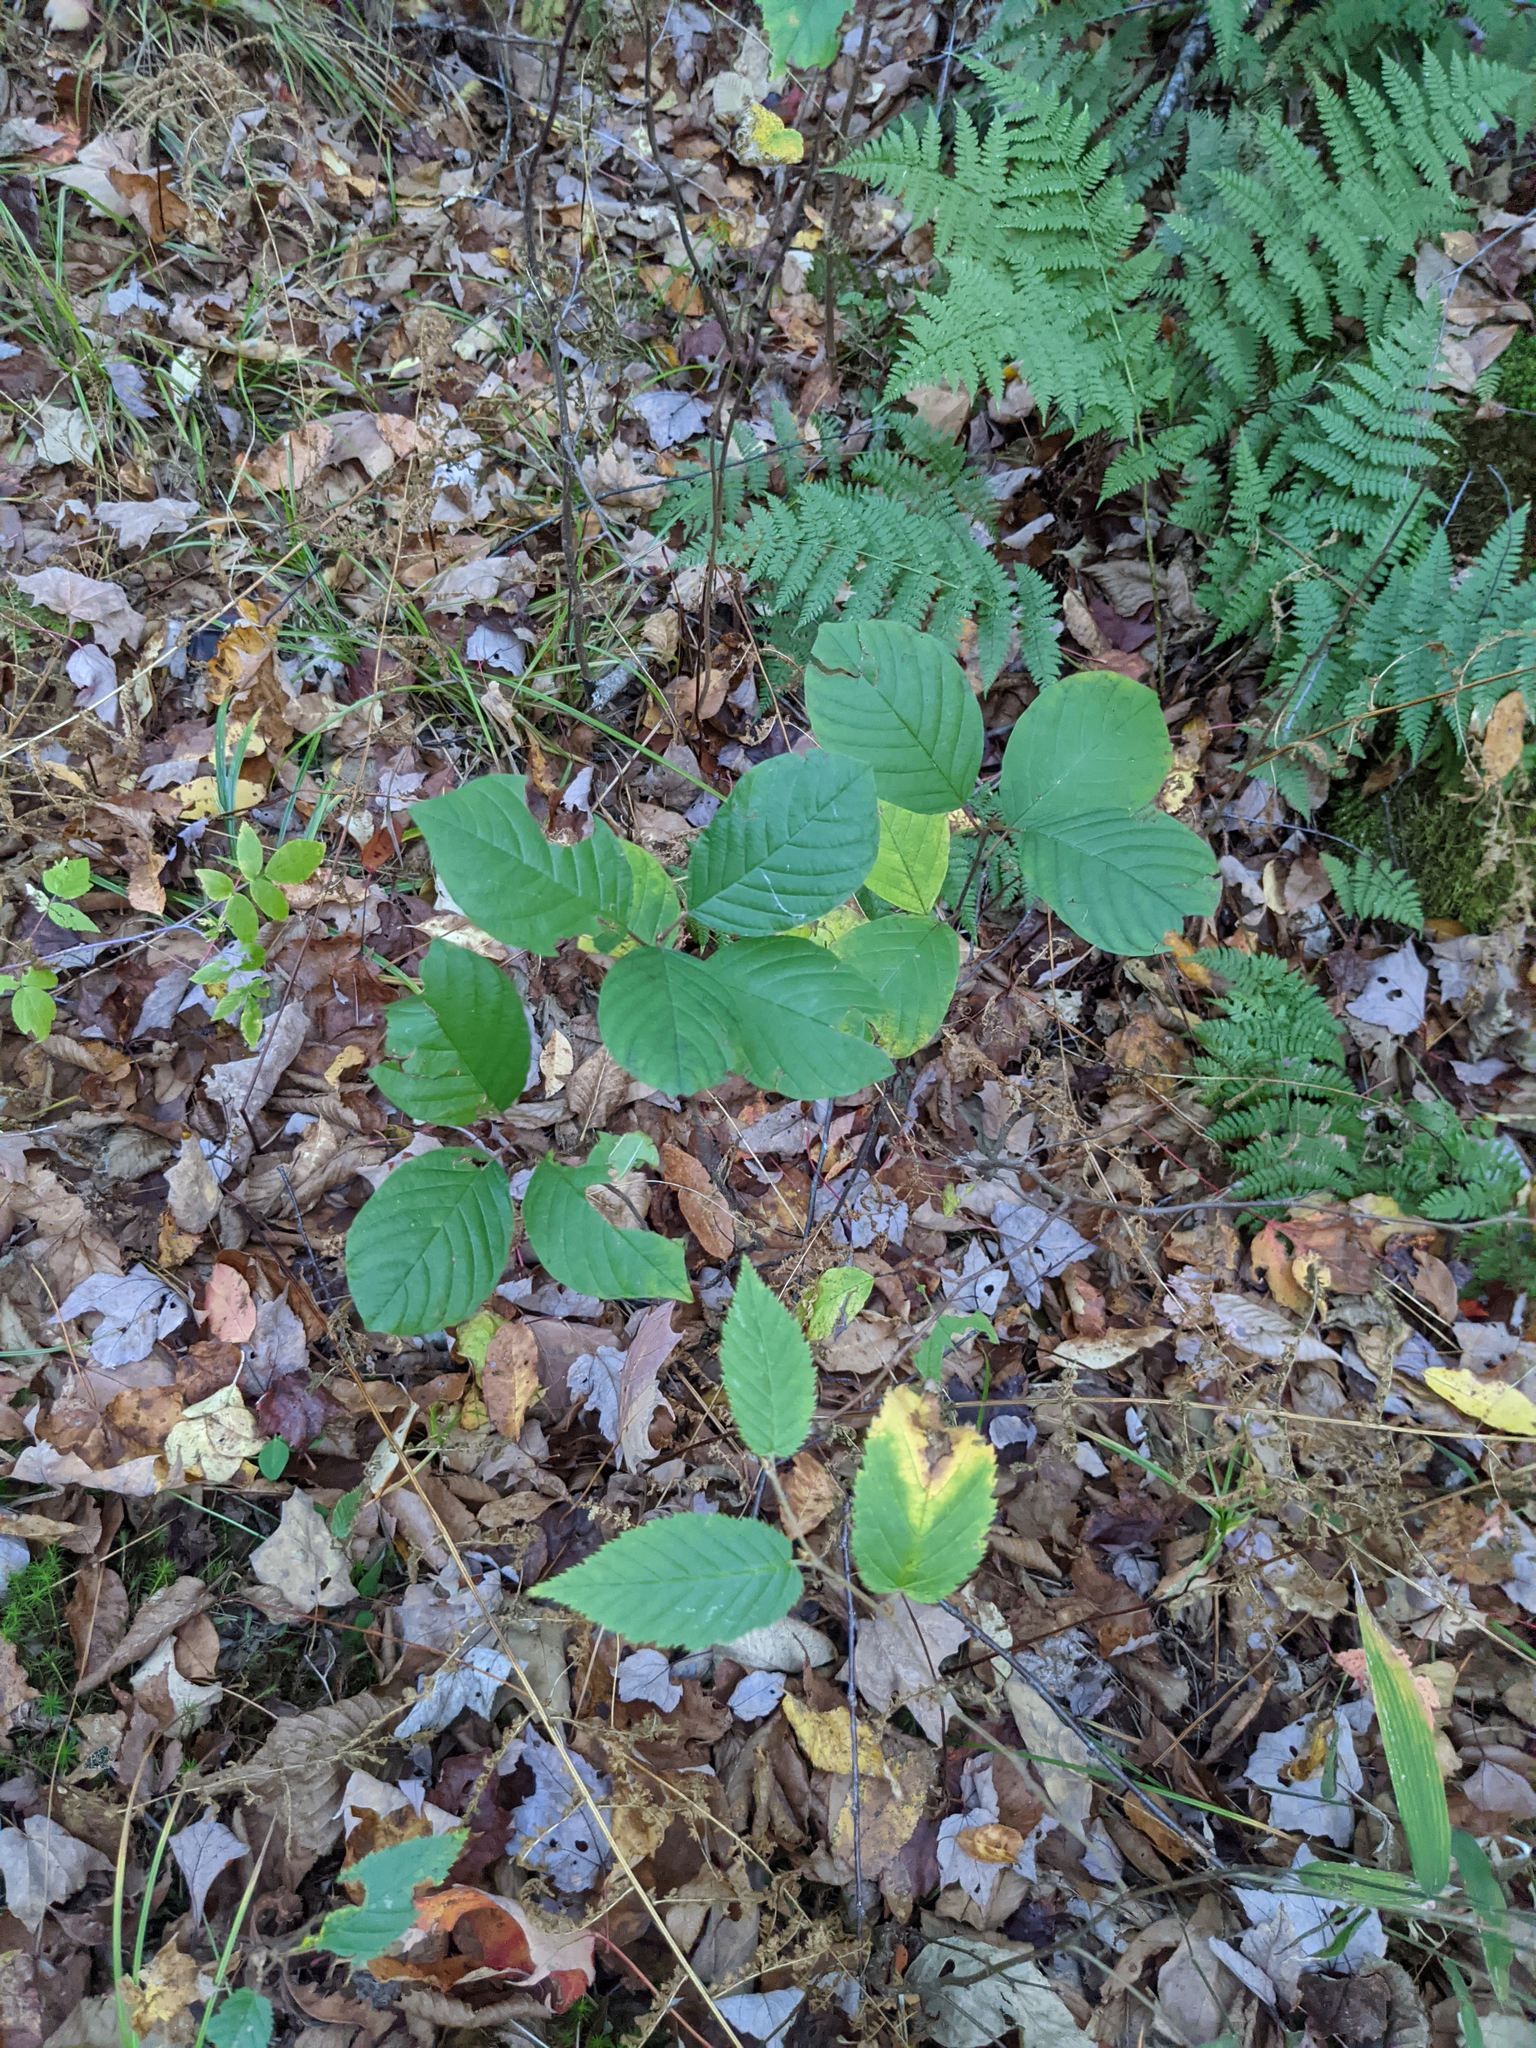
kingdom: Plantae
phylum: Tracheophyta
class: Magnoliopsida
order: Rosales
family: Rhamnaceae
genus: Frangula
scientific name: Frangula alnus
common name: Alder buckthorn
